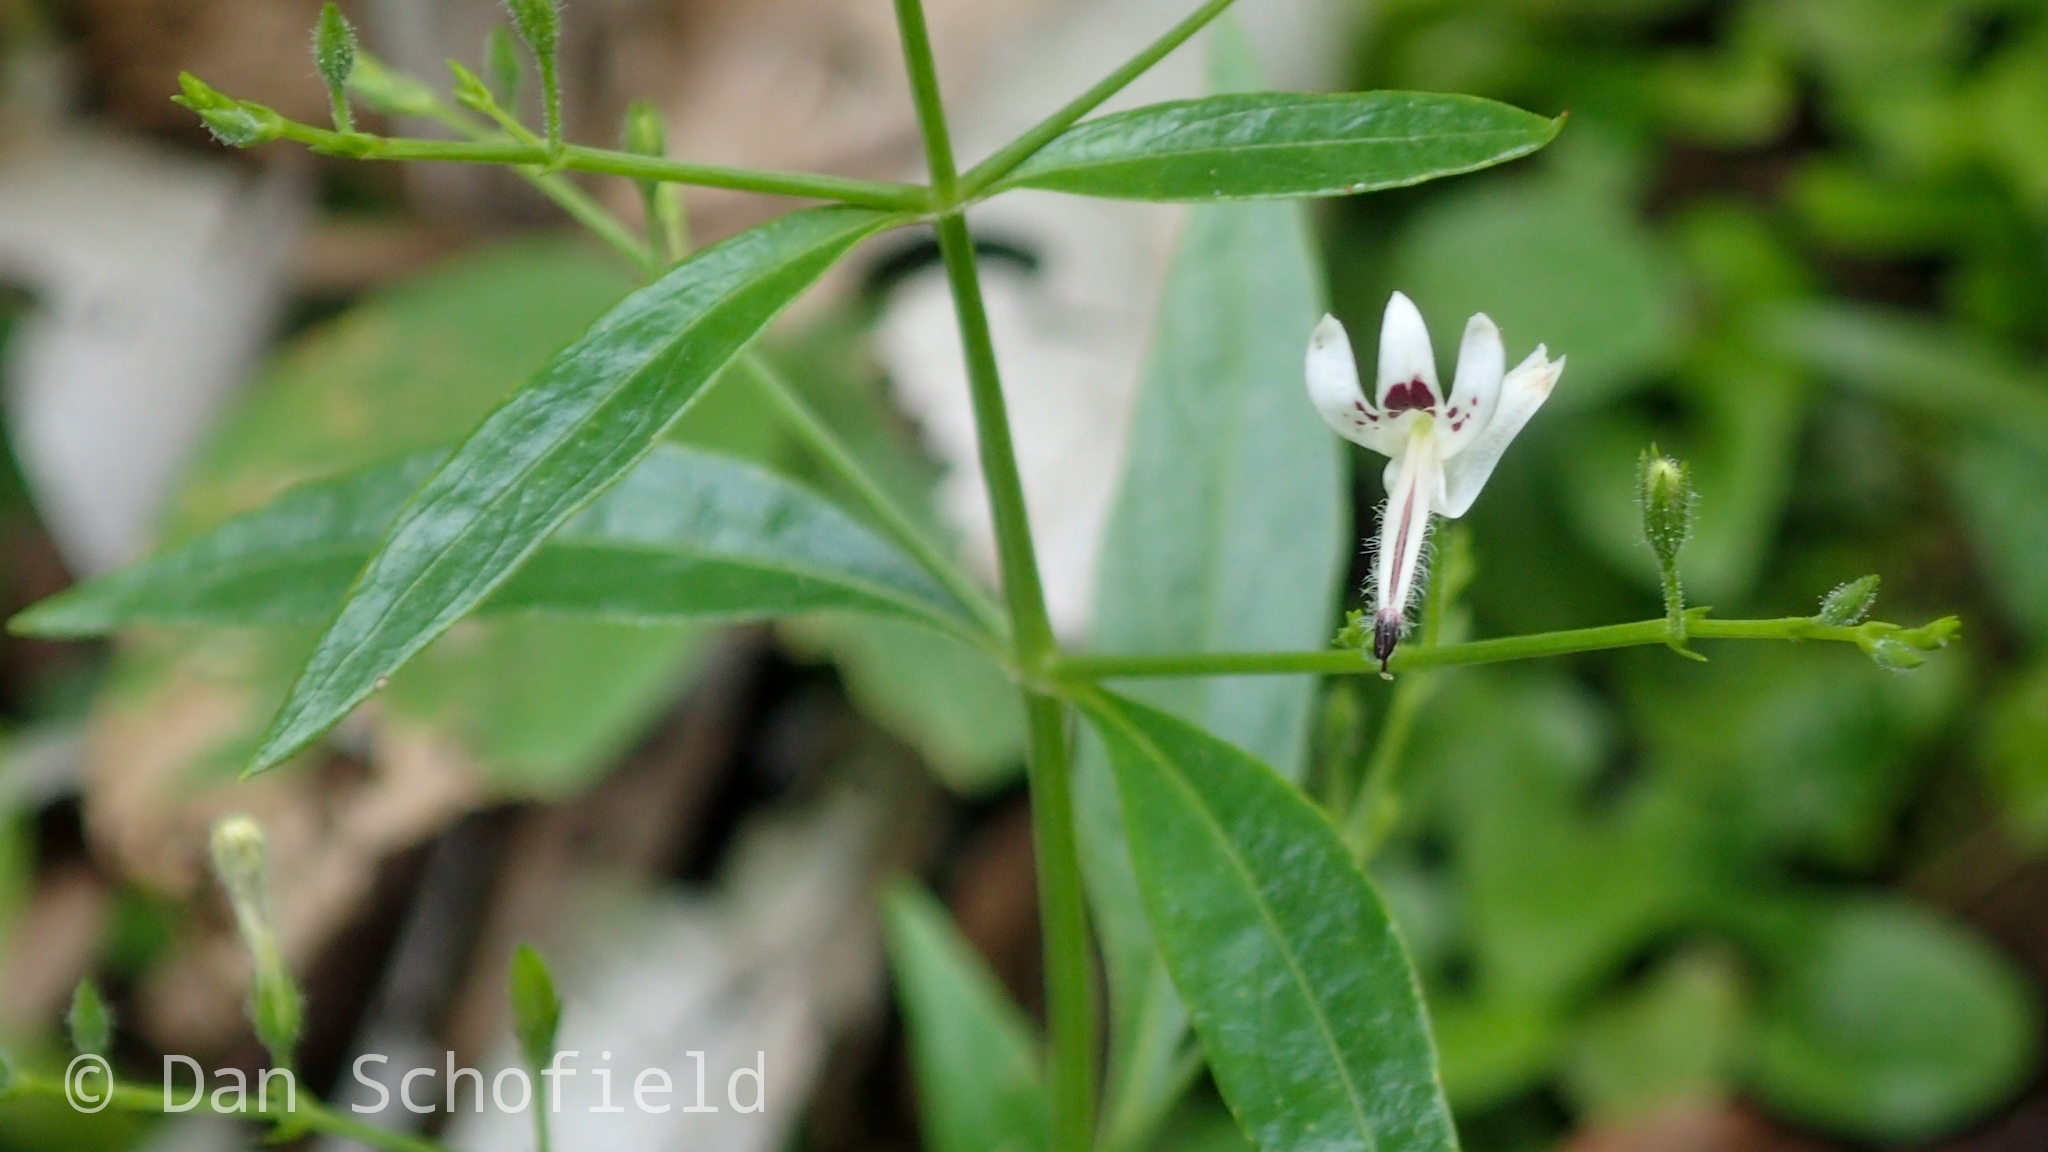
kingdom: Plantae
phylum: Tracheophyta
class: Magnoliopsida
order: Lamiales
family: Acanthaceae
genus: Andrographis
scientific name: Andrographis paniculata
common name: Green chireta
